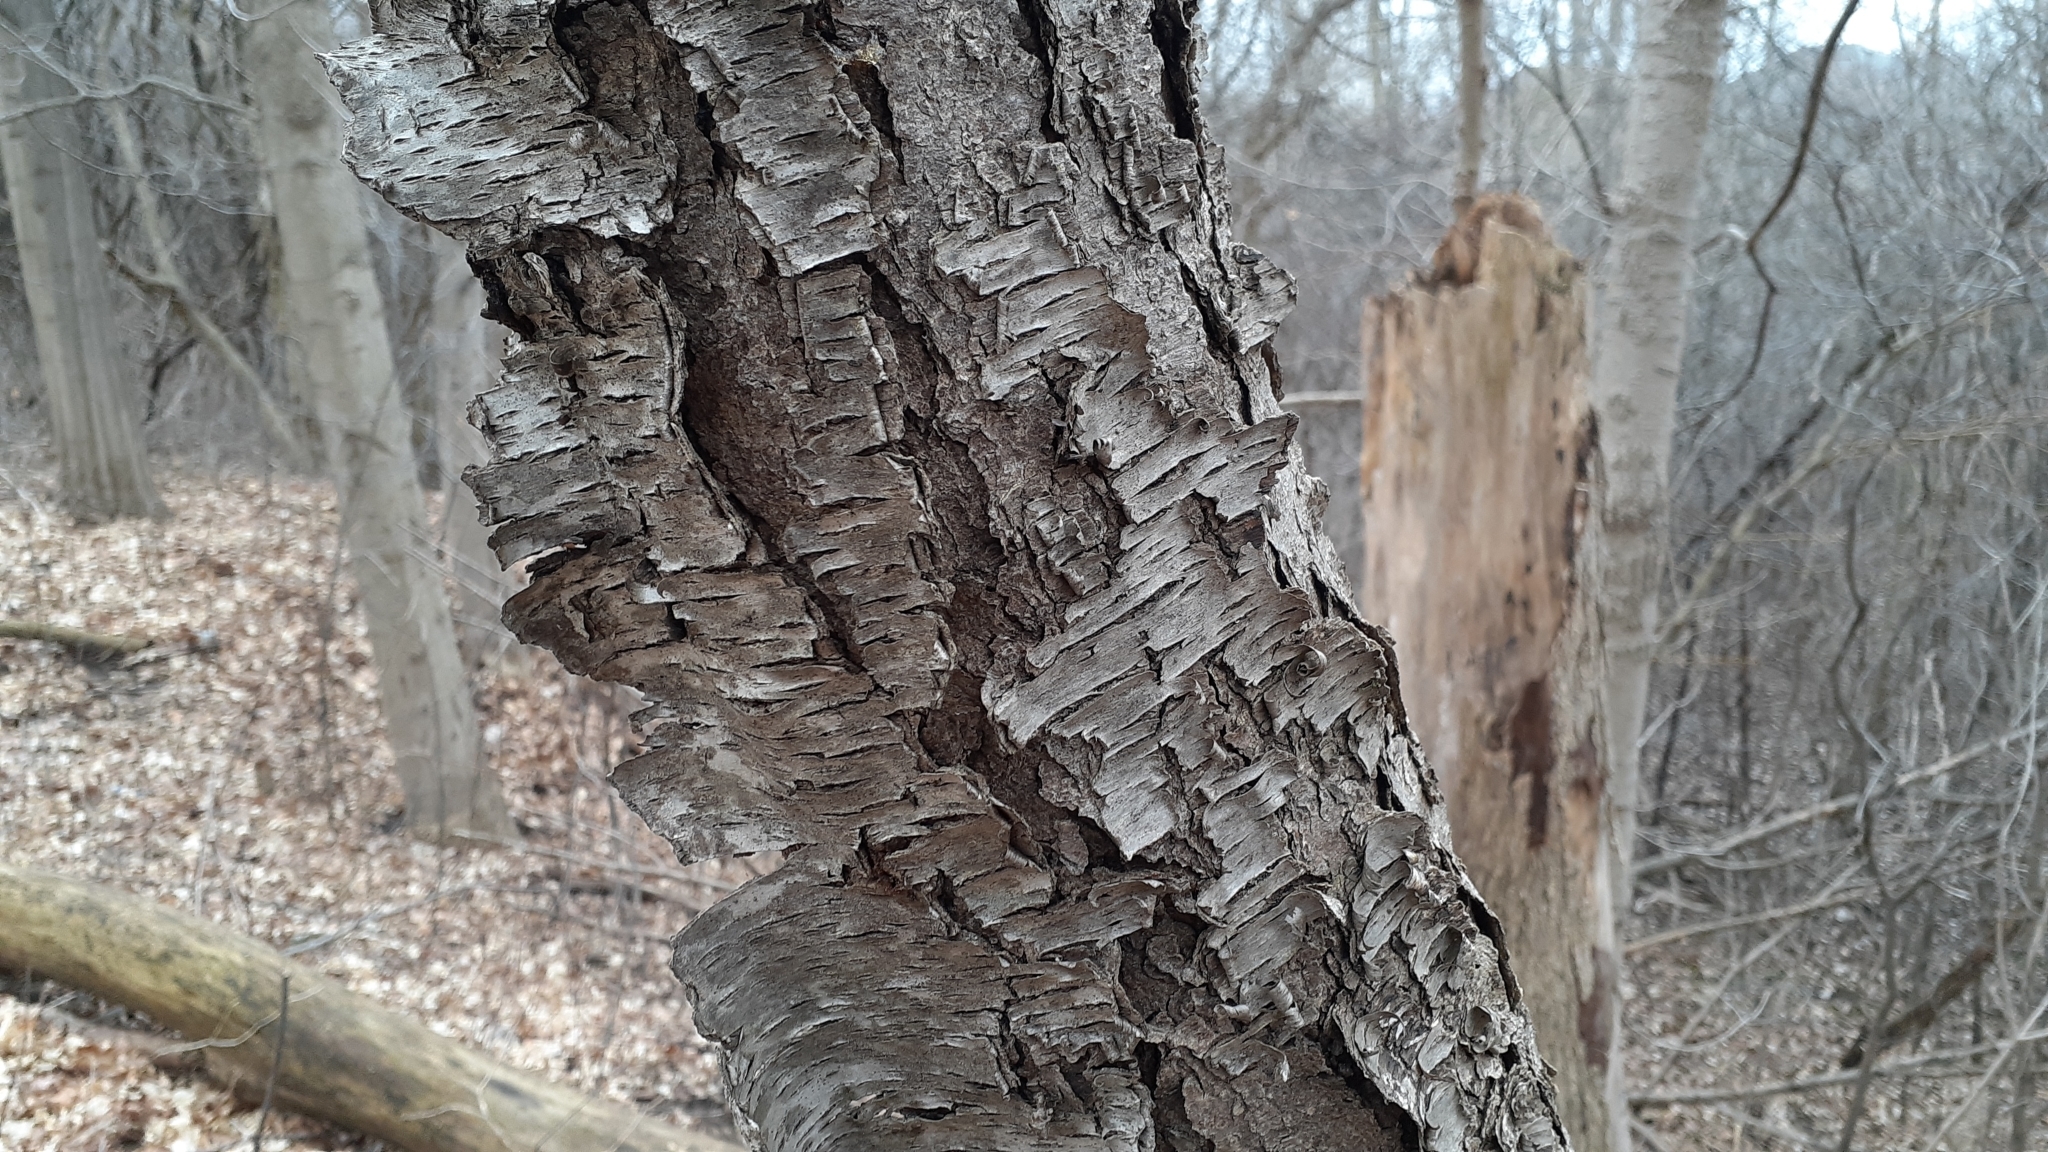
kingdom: Plantae
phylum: Tracheophyta
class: Magnoliopsida
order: Rosales
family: Rosaceae
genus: Prunus
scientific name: Prunus serotina
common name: Black cherry
